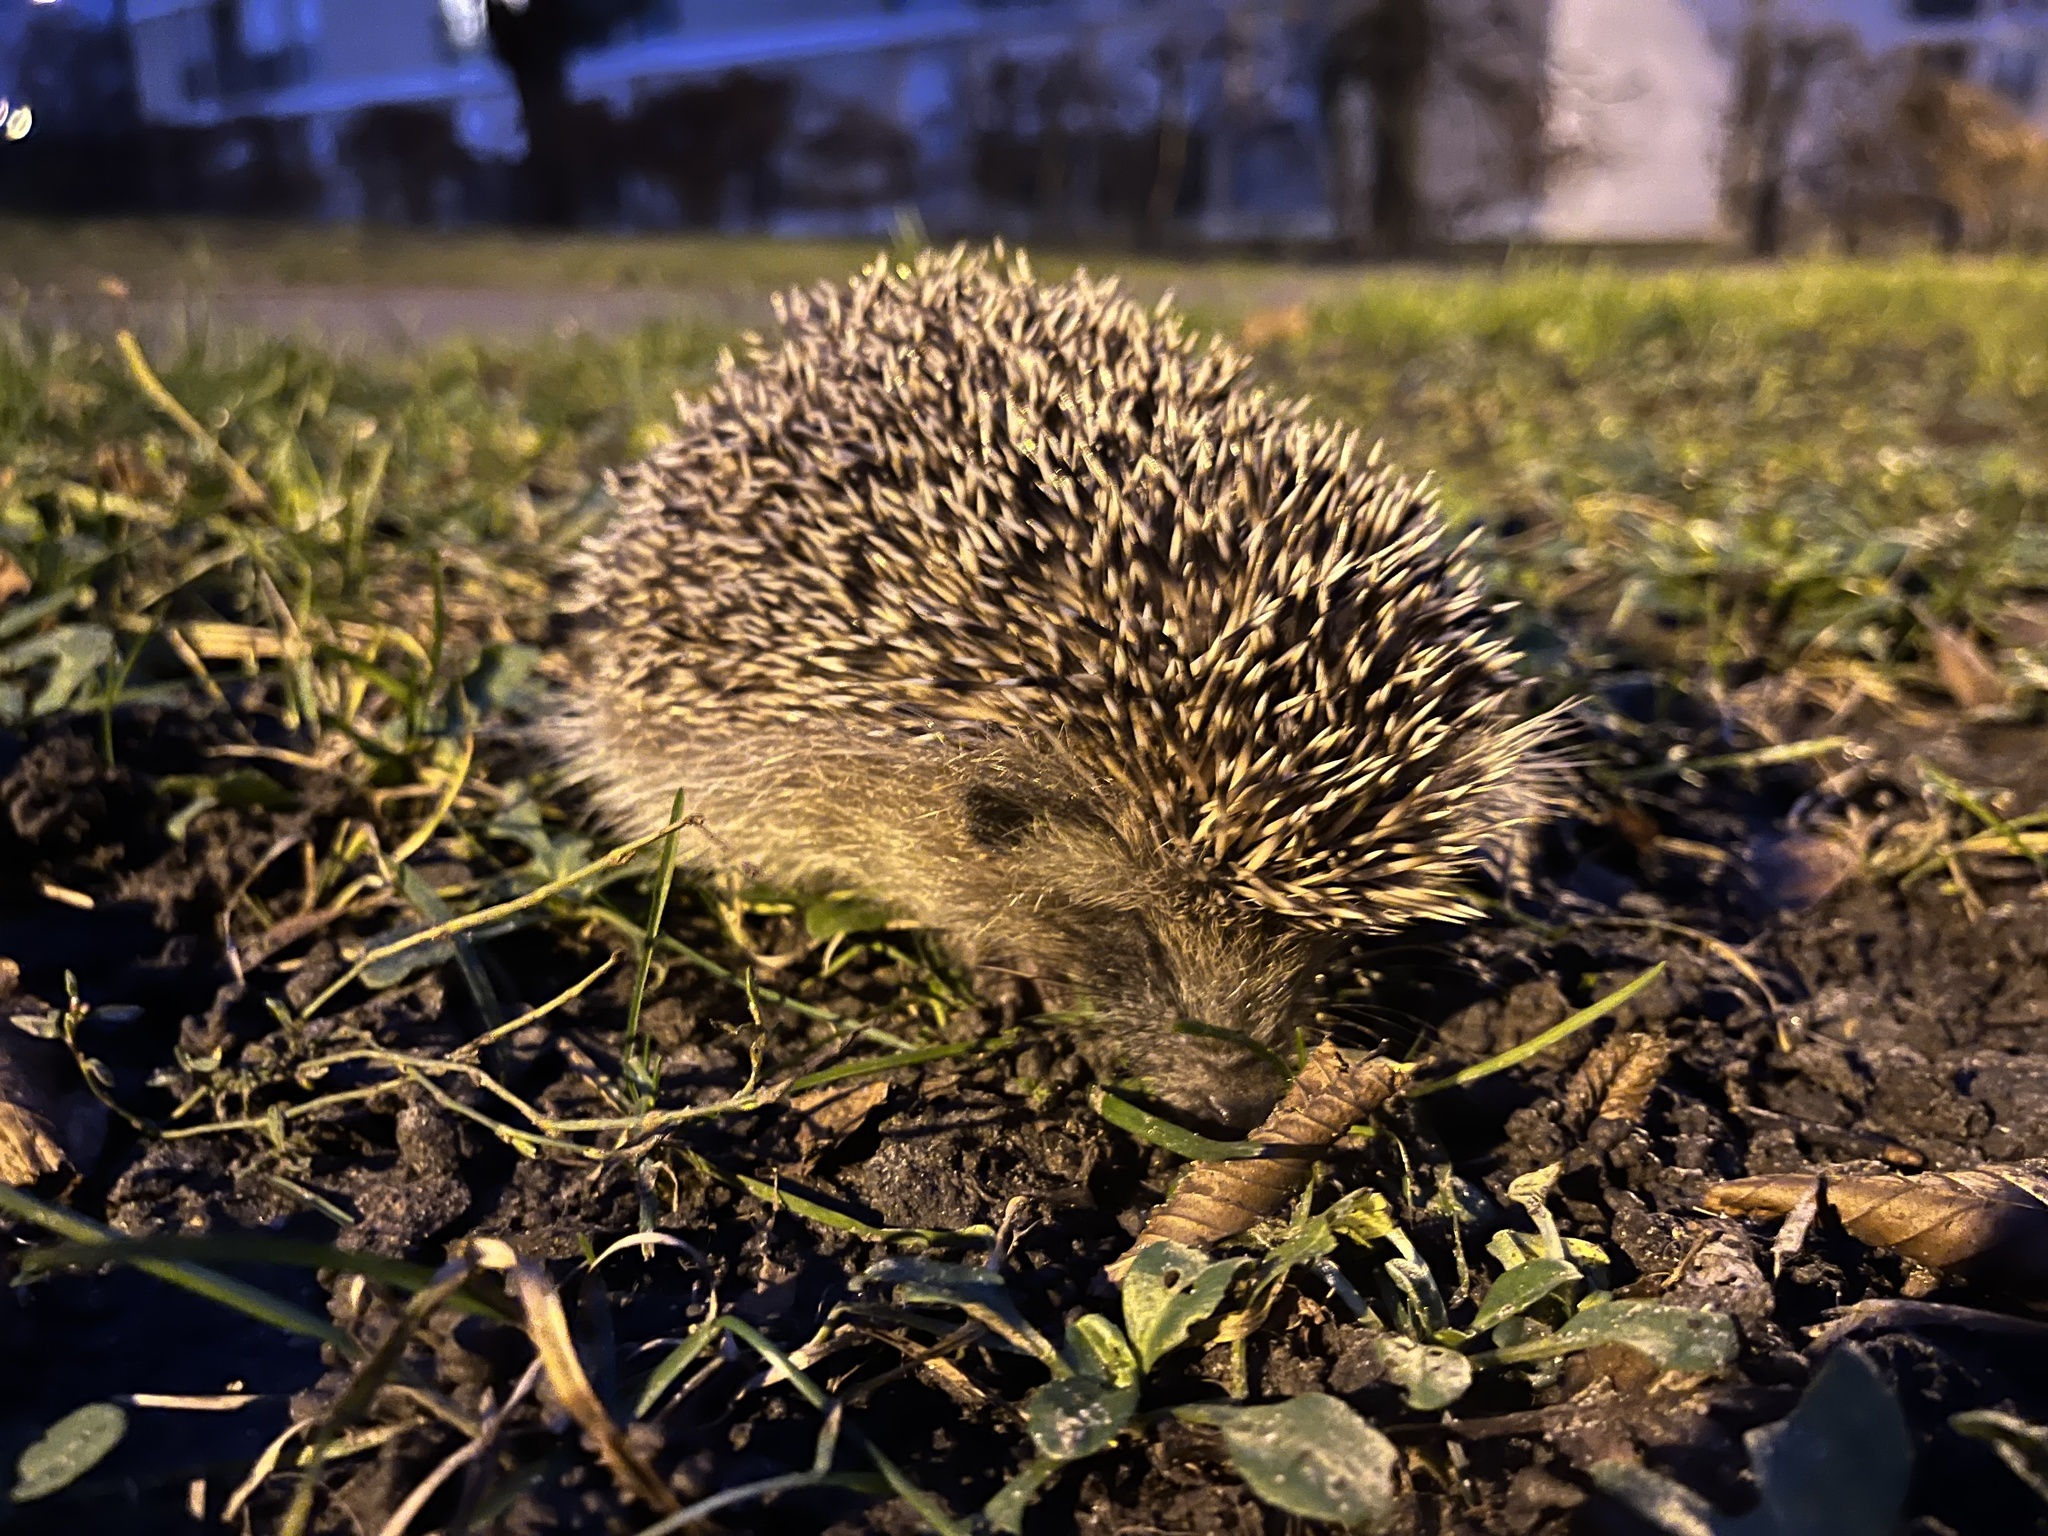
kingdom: Animalia
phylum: Chordata
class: Mammalia
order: Erinaceomorpha
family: Erinaceidae
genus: Erinaceus
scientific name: Erinaceus europaeus
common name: West european hedgehog
